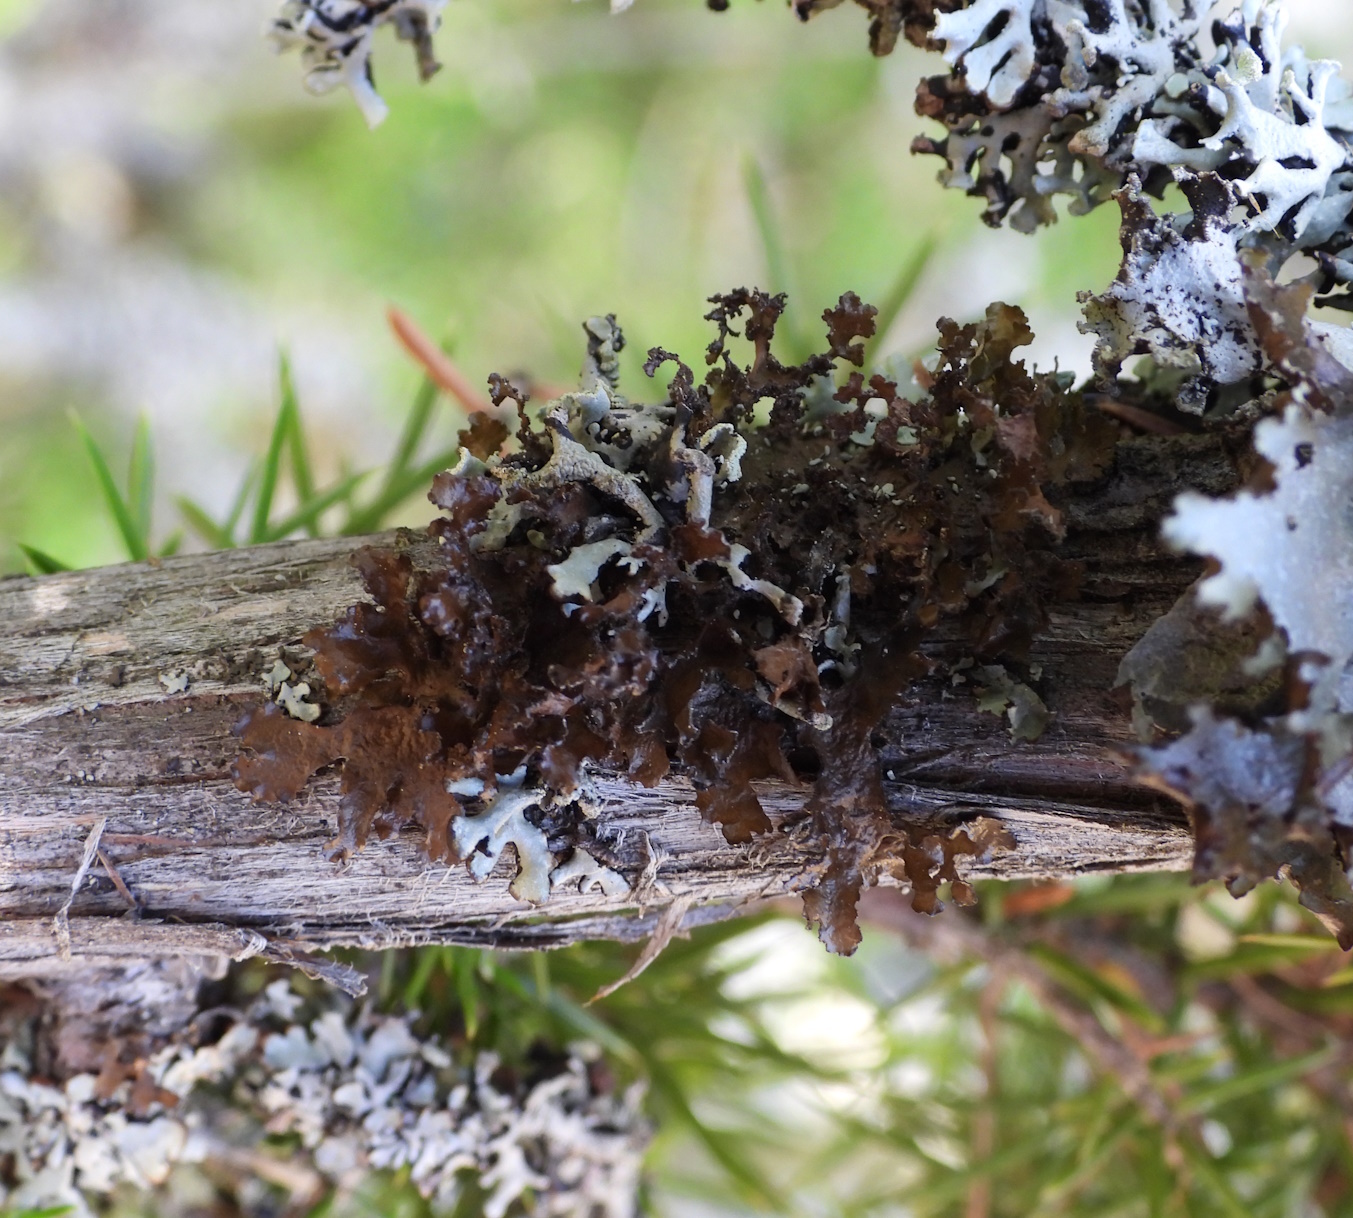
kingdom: Fungi
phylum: Ascomycota
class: Lecanoromycetes
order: Lecanorales
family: Parmeliaceae
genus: Nephromopsis
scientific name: Nephromopsis chlorophylla
